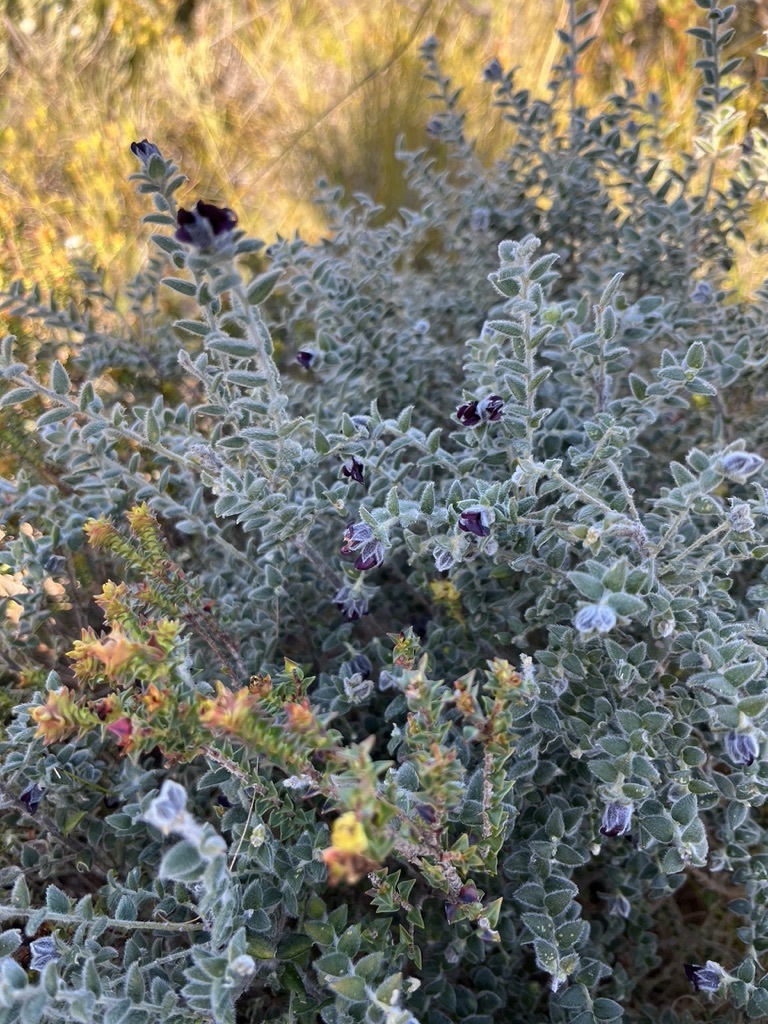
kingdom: Plantae
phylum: Tracheophyta
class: Magnoliopsida
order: Fabales
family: Fabaceae
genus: Amphithalea
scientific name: Amphithalea rostrata
